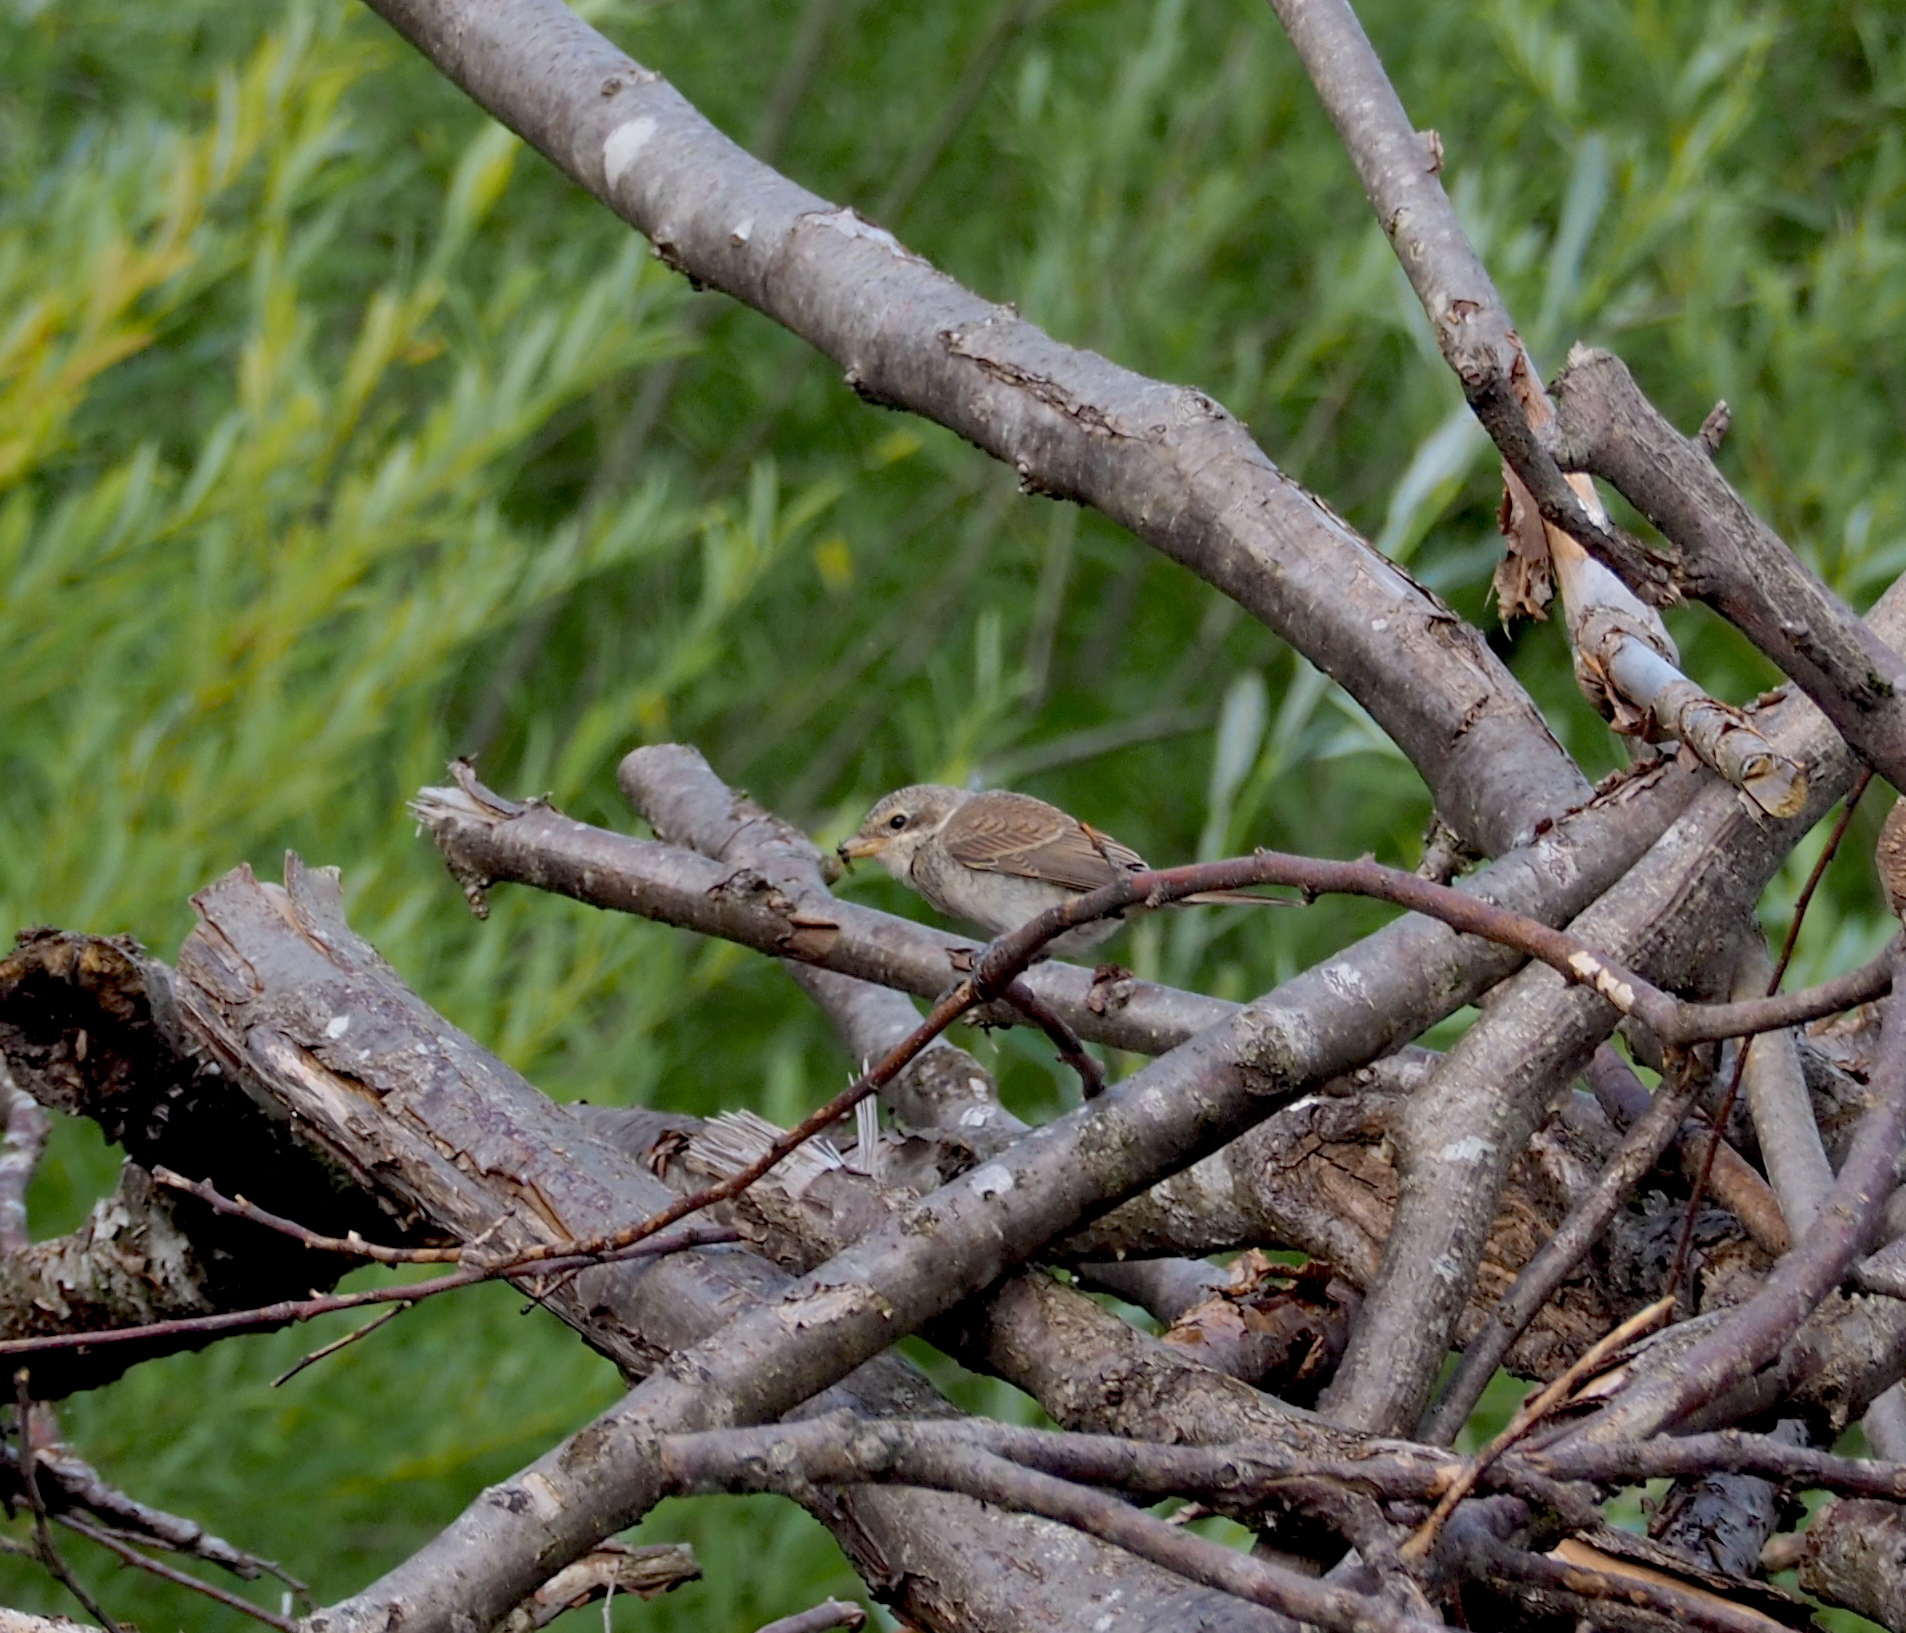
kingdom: Animalia
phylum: Chordata
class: Aves
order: Passeriformes
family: Laniidae
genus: Lanius
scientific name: Lanius collurio
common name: Red-backed shrike
